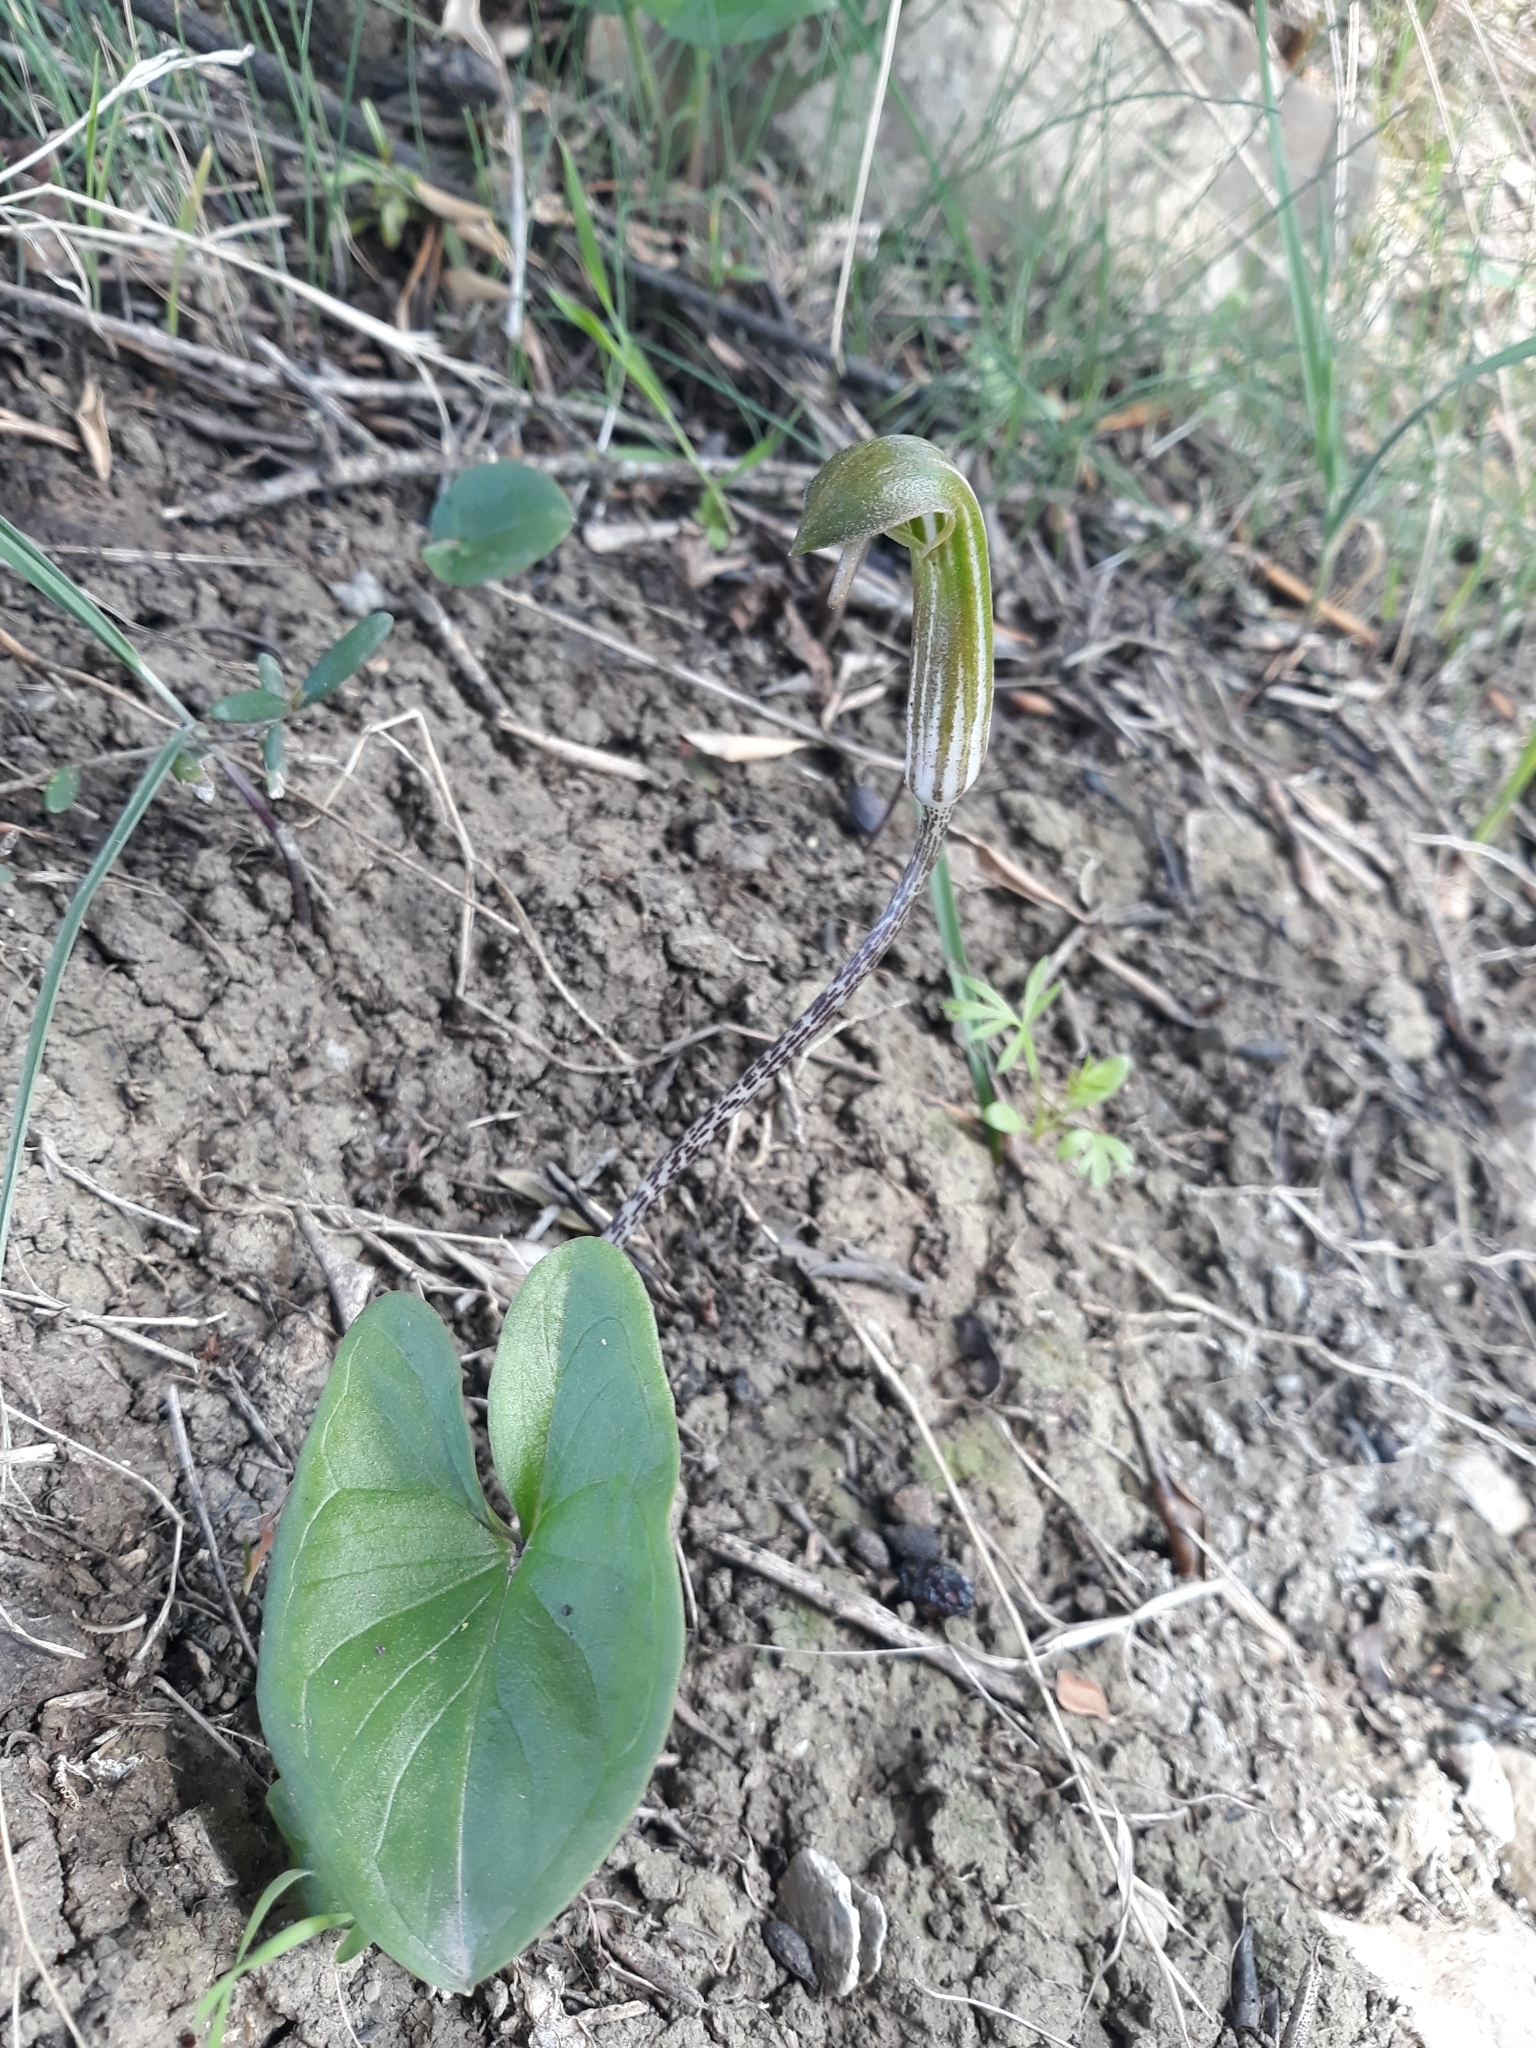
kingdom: Plantae
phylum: Tracheophyta
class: Liliopsida
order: Alismatales
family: Araceae
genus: Arisarum
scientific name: Arisarum vulgare
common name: Common arisarum
